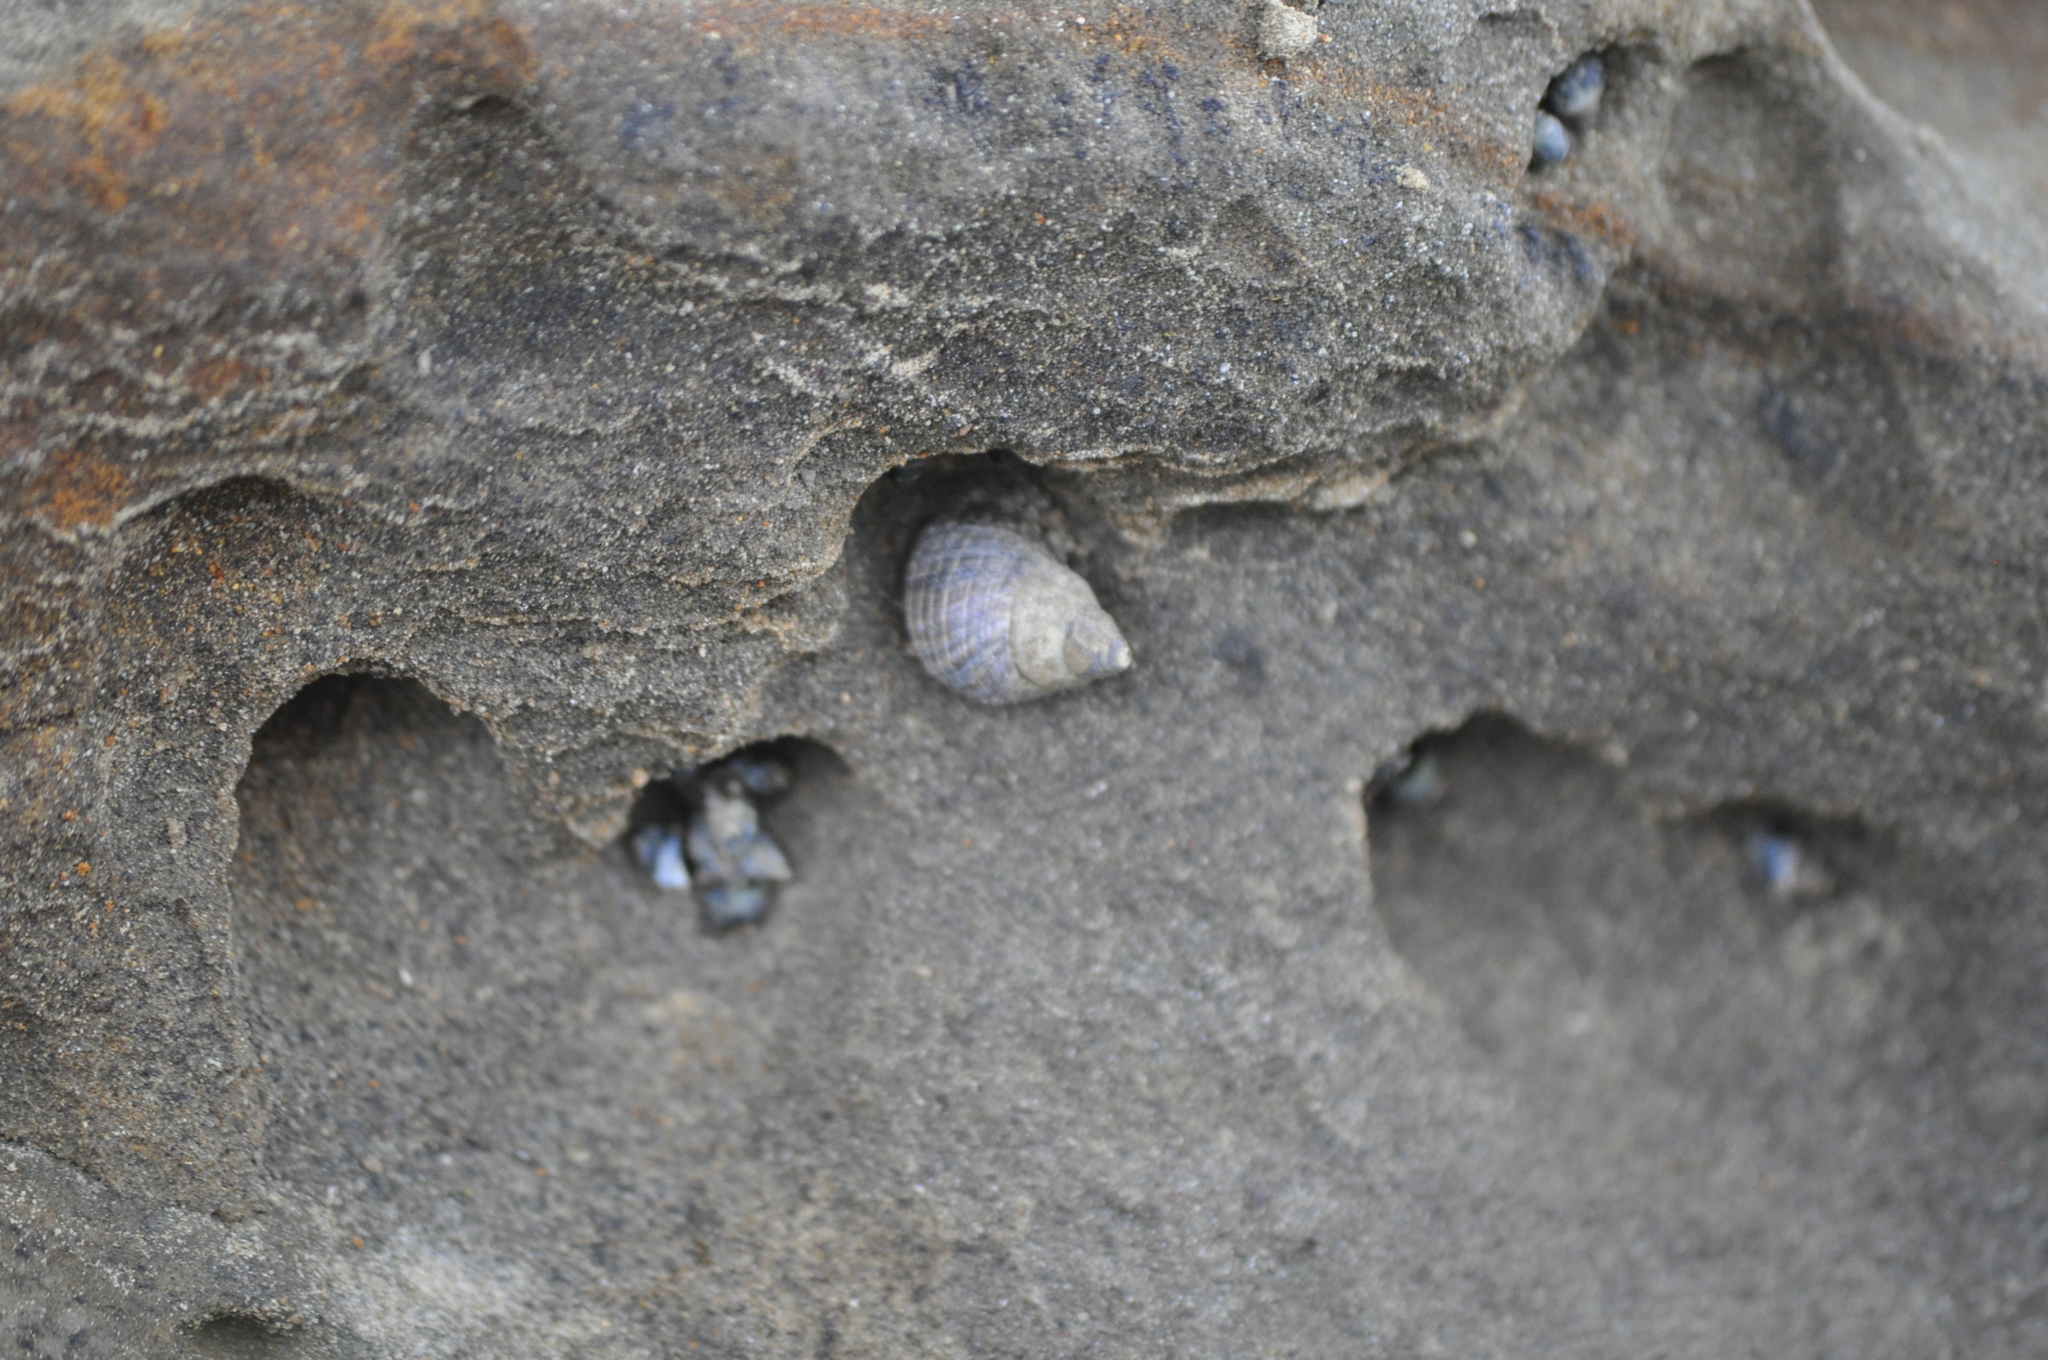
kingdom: Animalia
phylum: Mollusca
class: Gastropoda
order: Littorinimorpha
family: Littorinidae
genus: Austrolittorina
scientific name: Austrolittorina cincta
